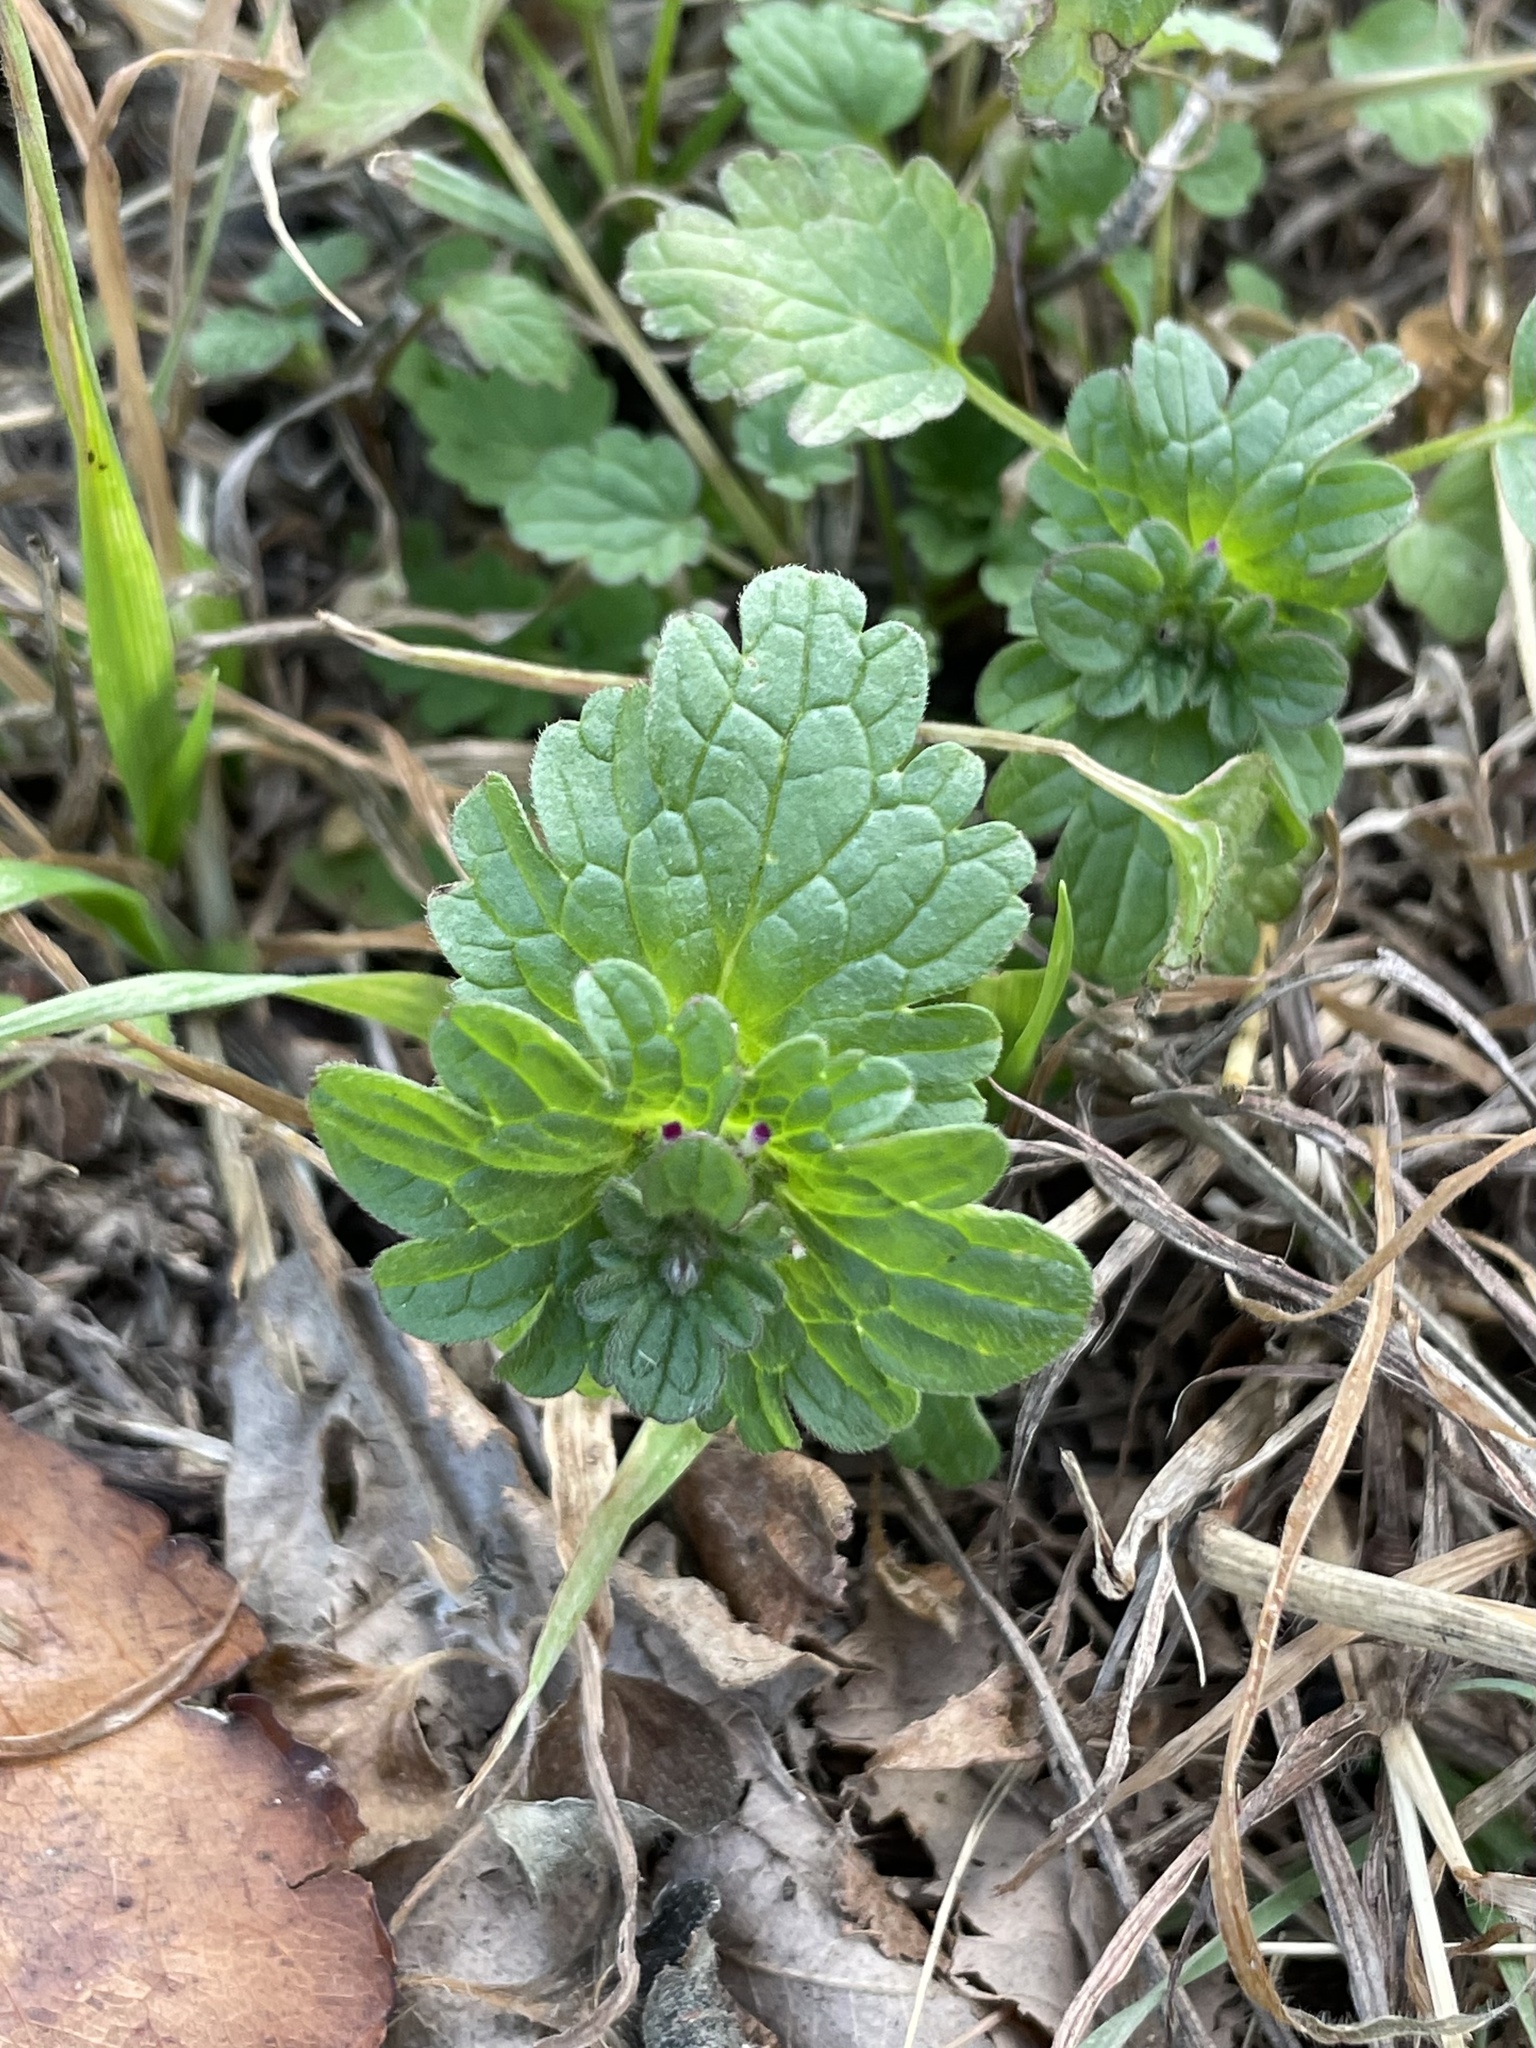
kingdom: Plantae
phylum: Tracheophyta
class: Magnoliopsida
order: Lamiales
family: Lamiaceae
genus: Lamium
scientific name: Lamium amplexicaule
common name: Henbit dead-nettle
